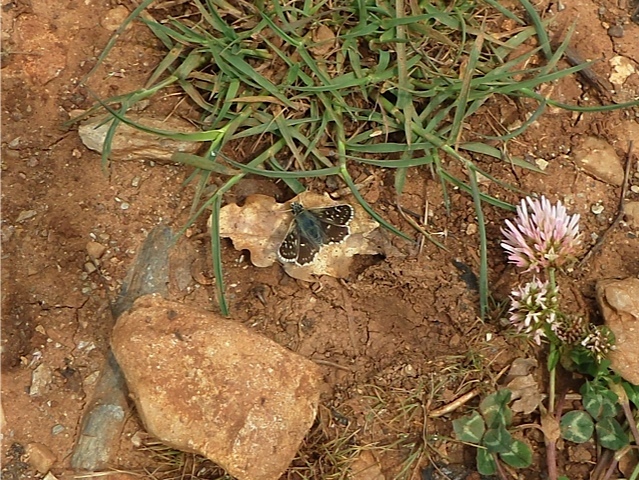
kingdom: Animalia
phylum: Arthropoda
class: Insecta
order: Lepidoptera
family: Hesperiidae
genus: Spialia
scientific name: Spialia sertorius
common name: Red underwing skipper
